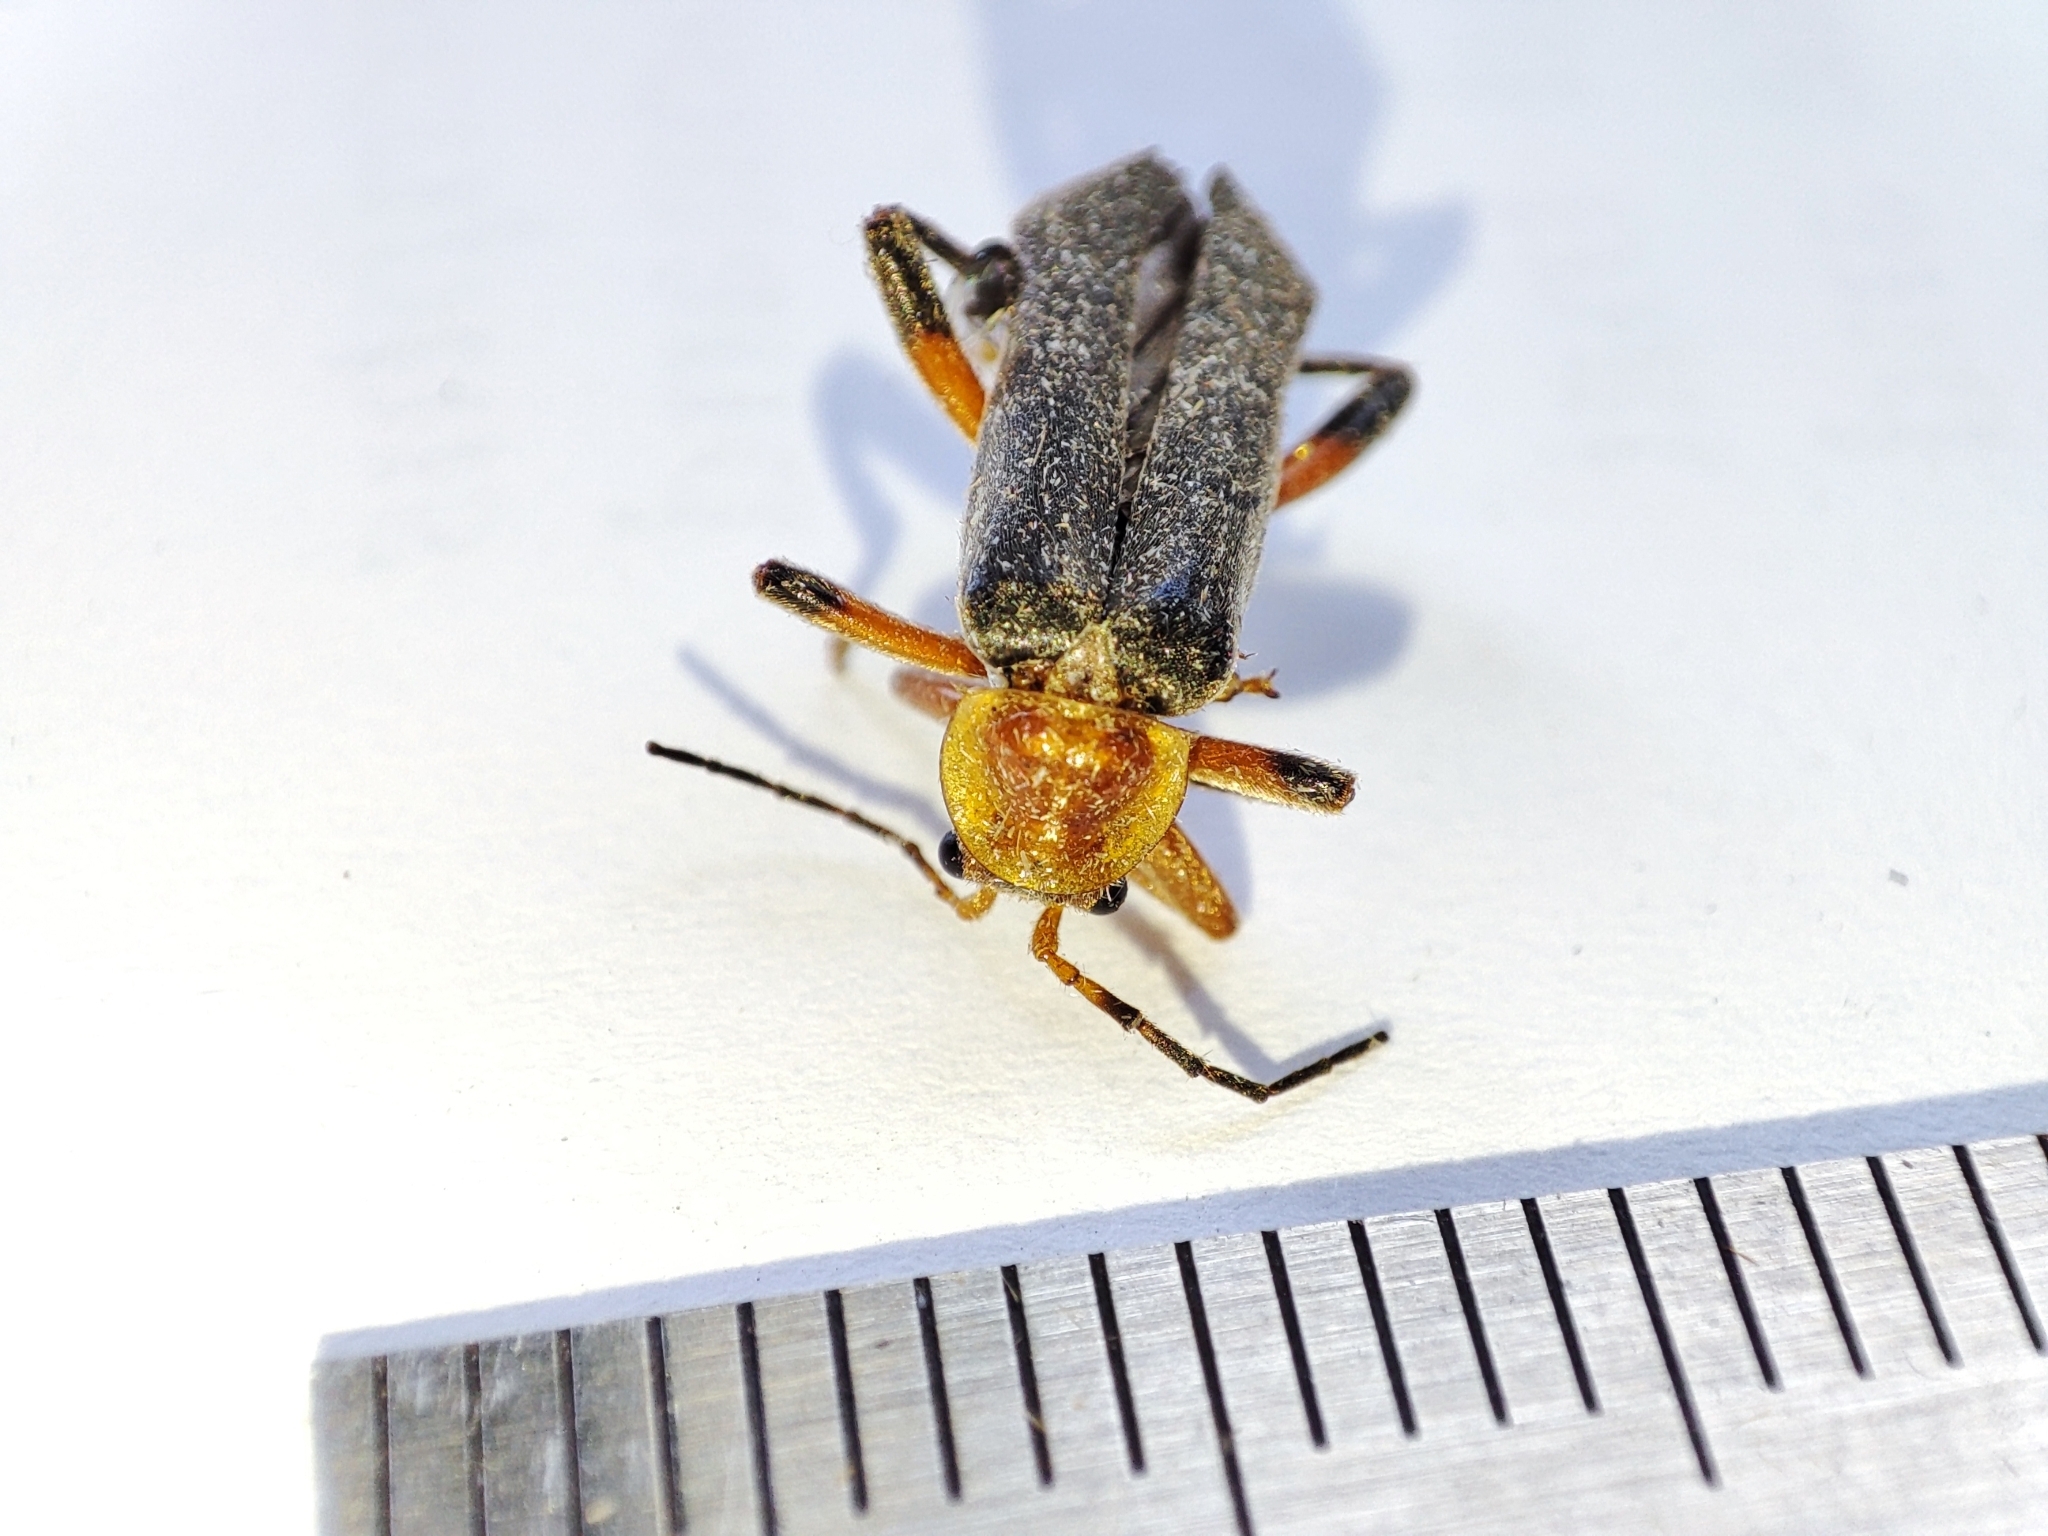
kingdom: Animalia
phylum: Arthropoda
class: Insecta
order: Coleoptera
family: Cantharidae
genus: Cantharis
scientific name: Cantharis livida
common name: Livid soldier beetle
